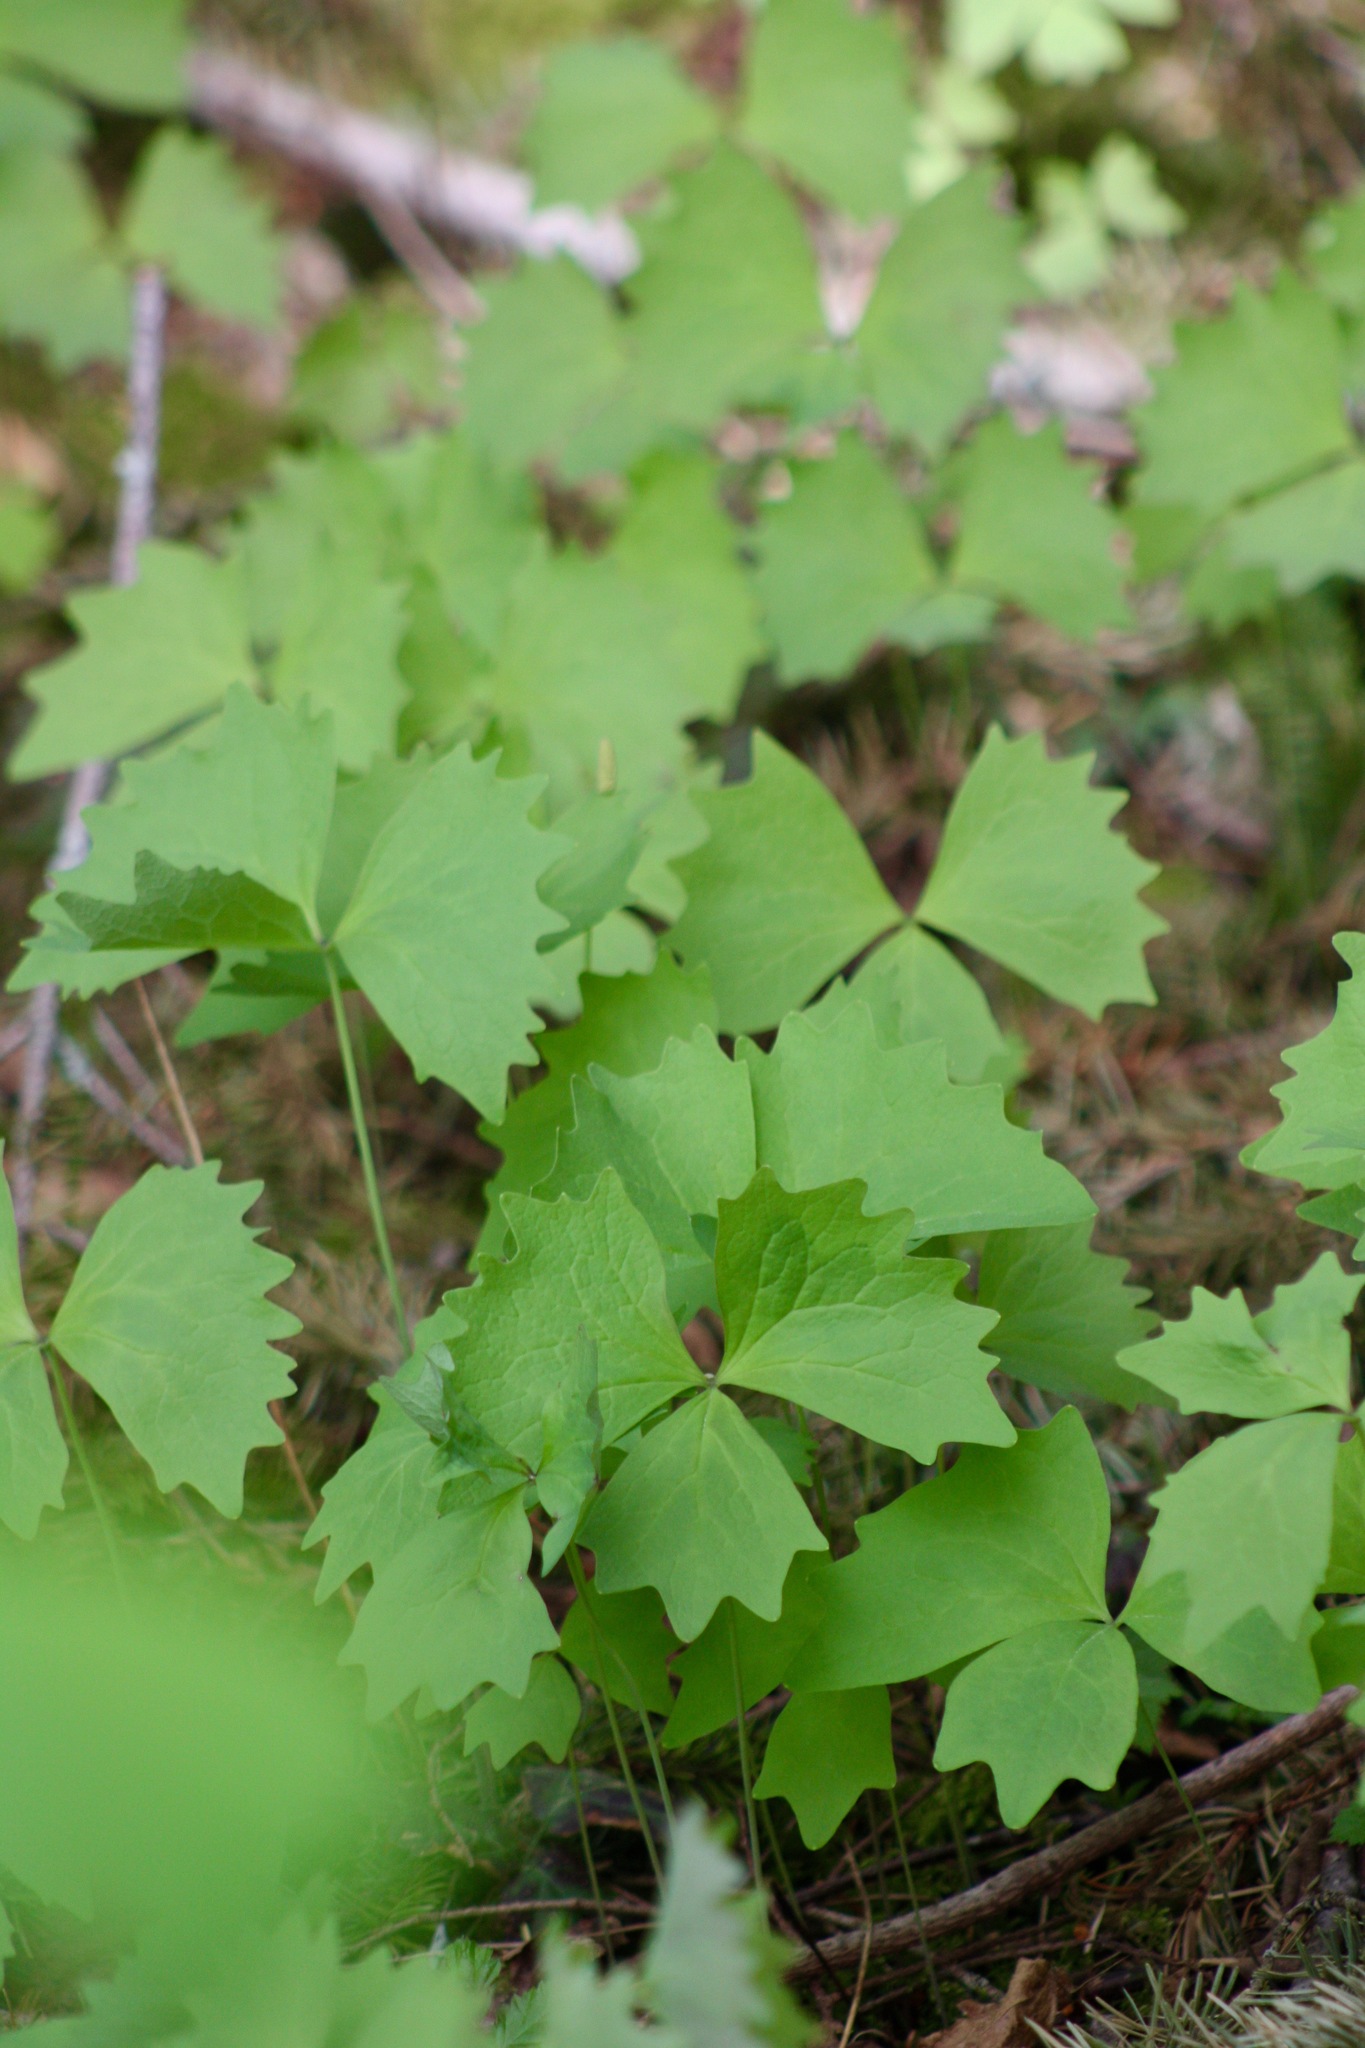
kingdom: Plantae
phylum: Tracheophyta
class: Magnoliopsida
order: Ranunculales
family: Berberidaceae
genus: Achlys
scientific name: Achlys triphylla
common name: Vanilla-leaf
